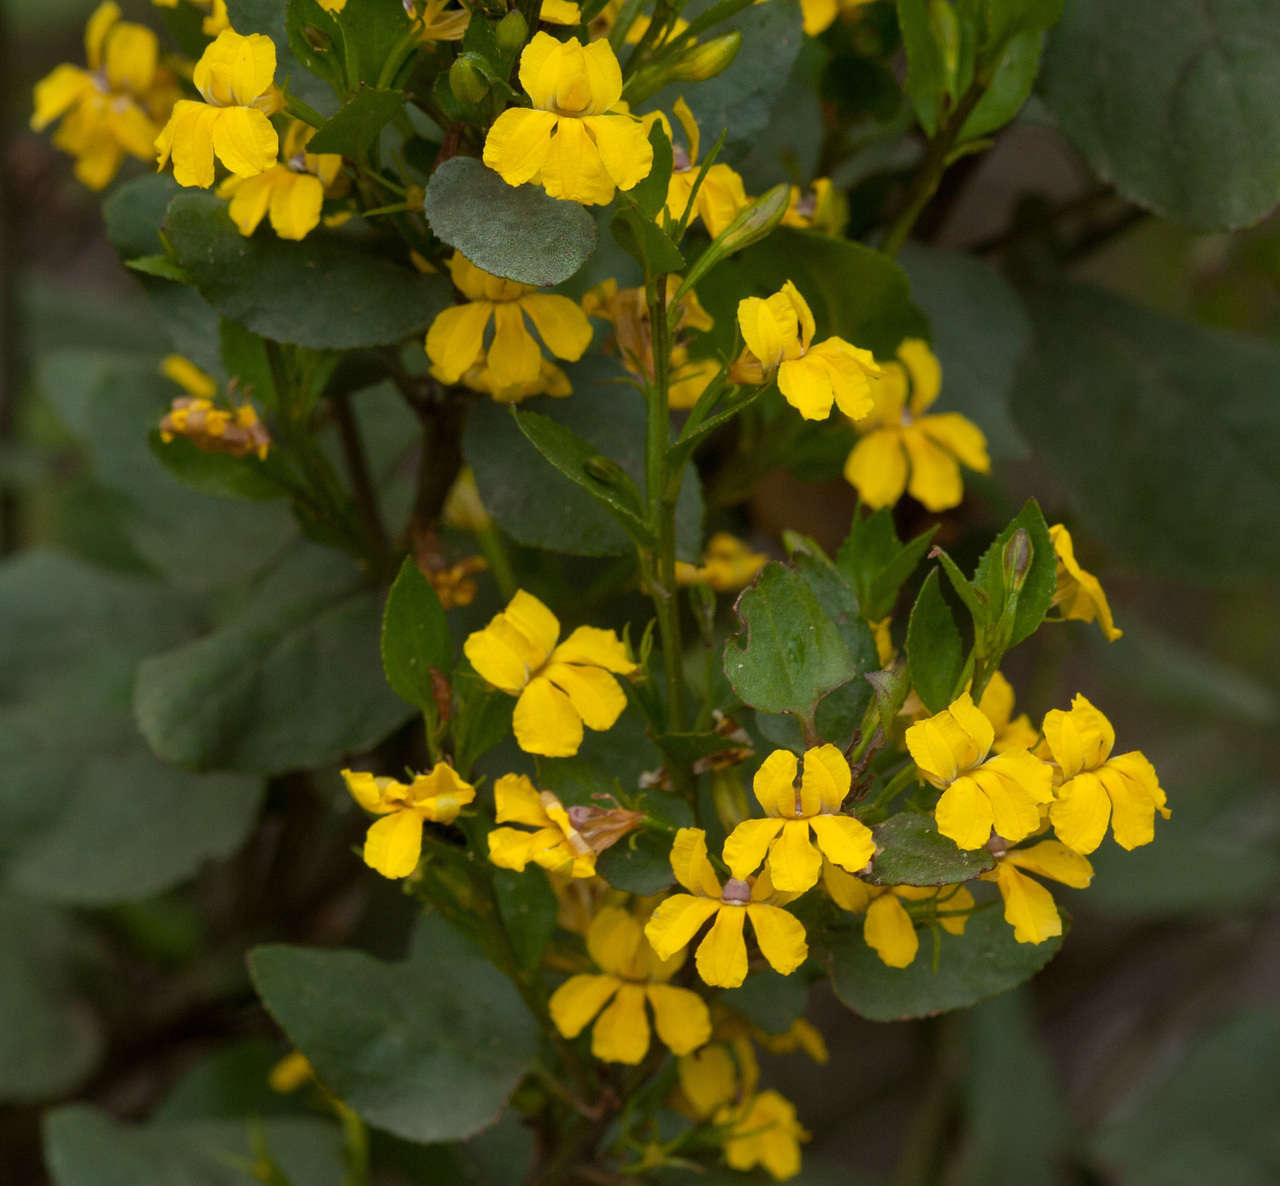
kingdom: Plantae
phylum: Tracheophyta
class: Magnoliopsida
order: Asterales
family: Goodeniaceae
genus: Goodenia
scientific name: Goodenia ovata
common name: Hop goodenia
